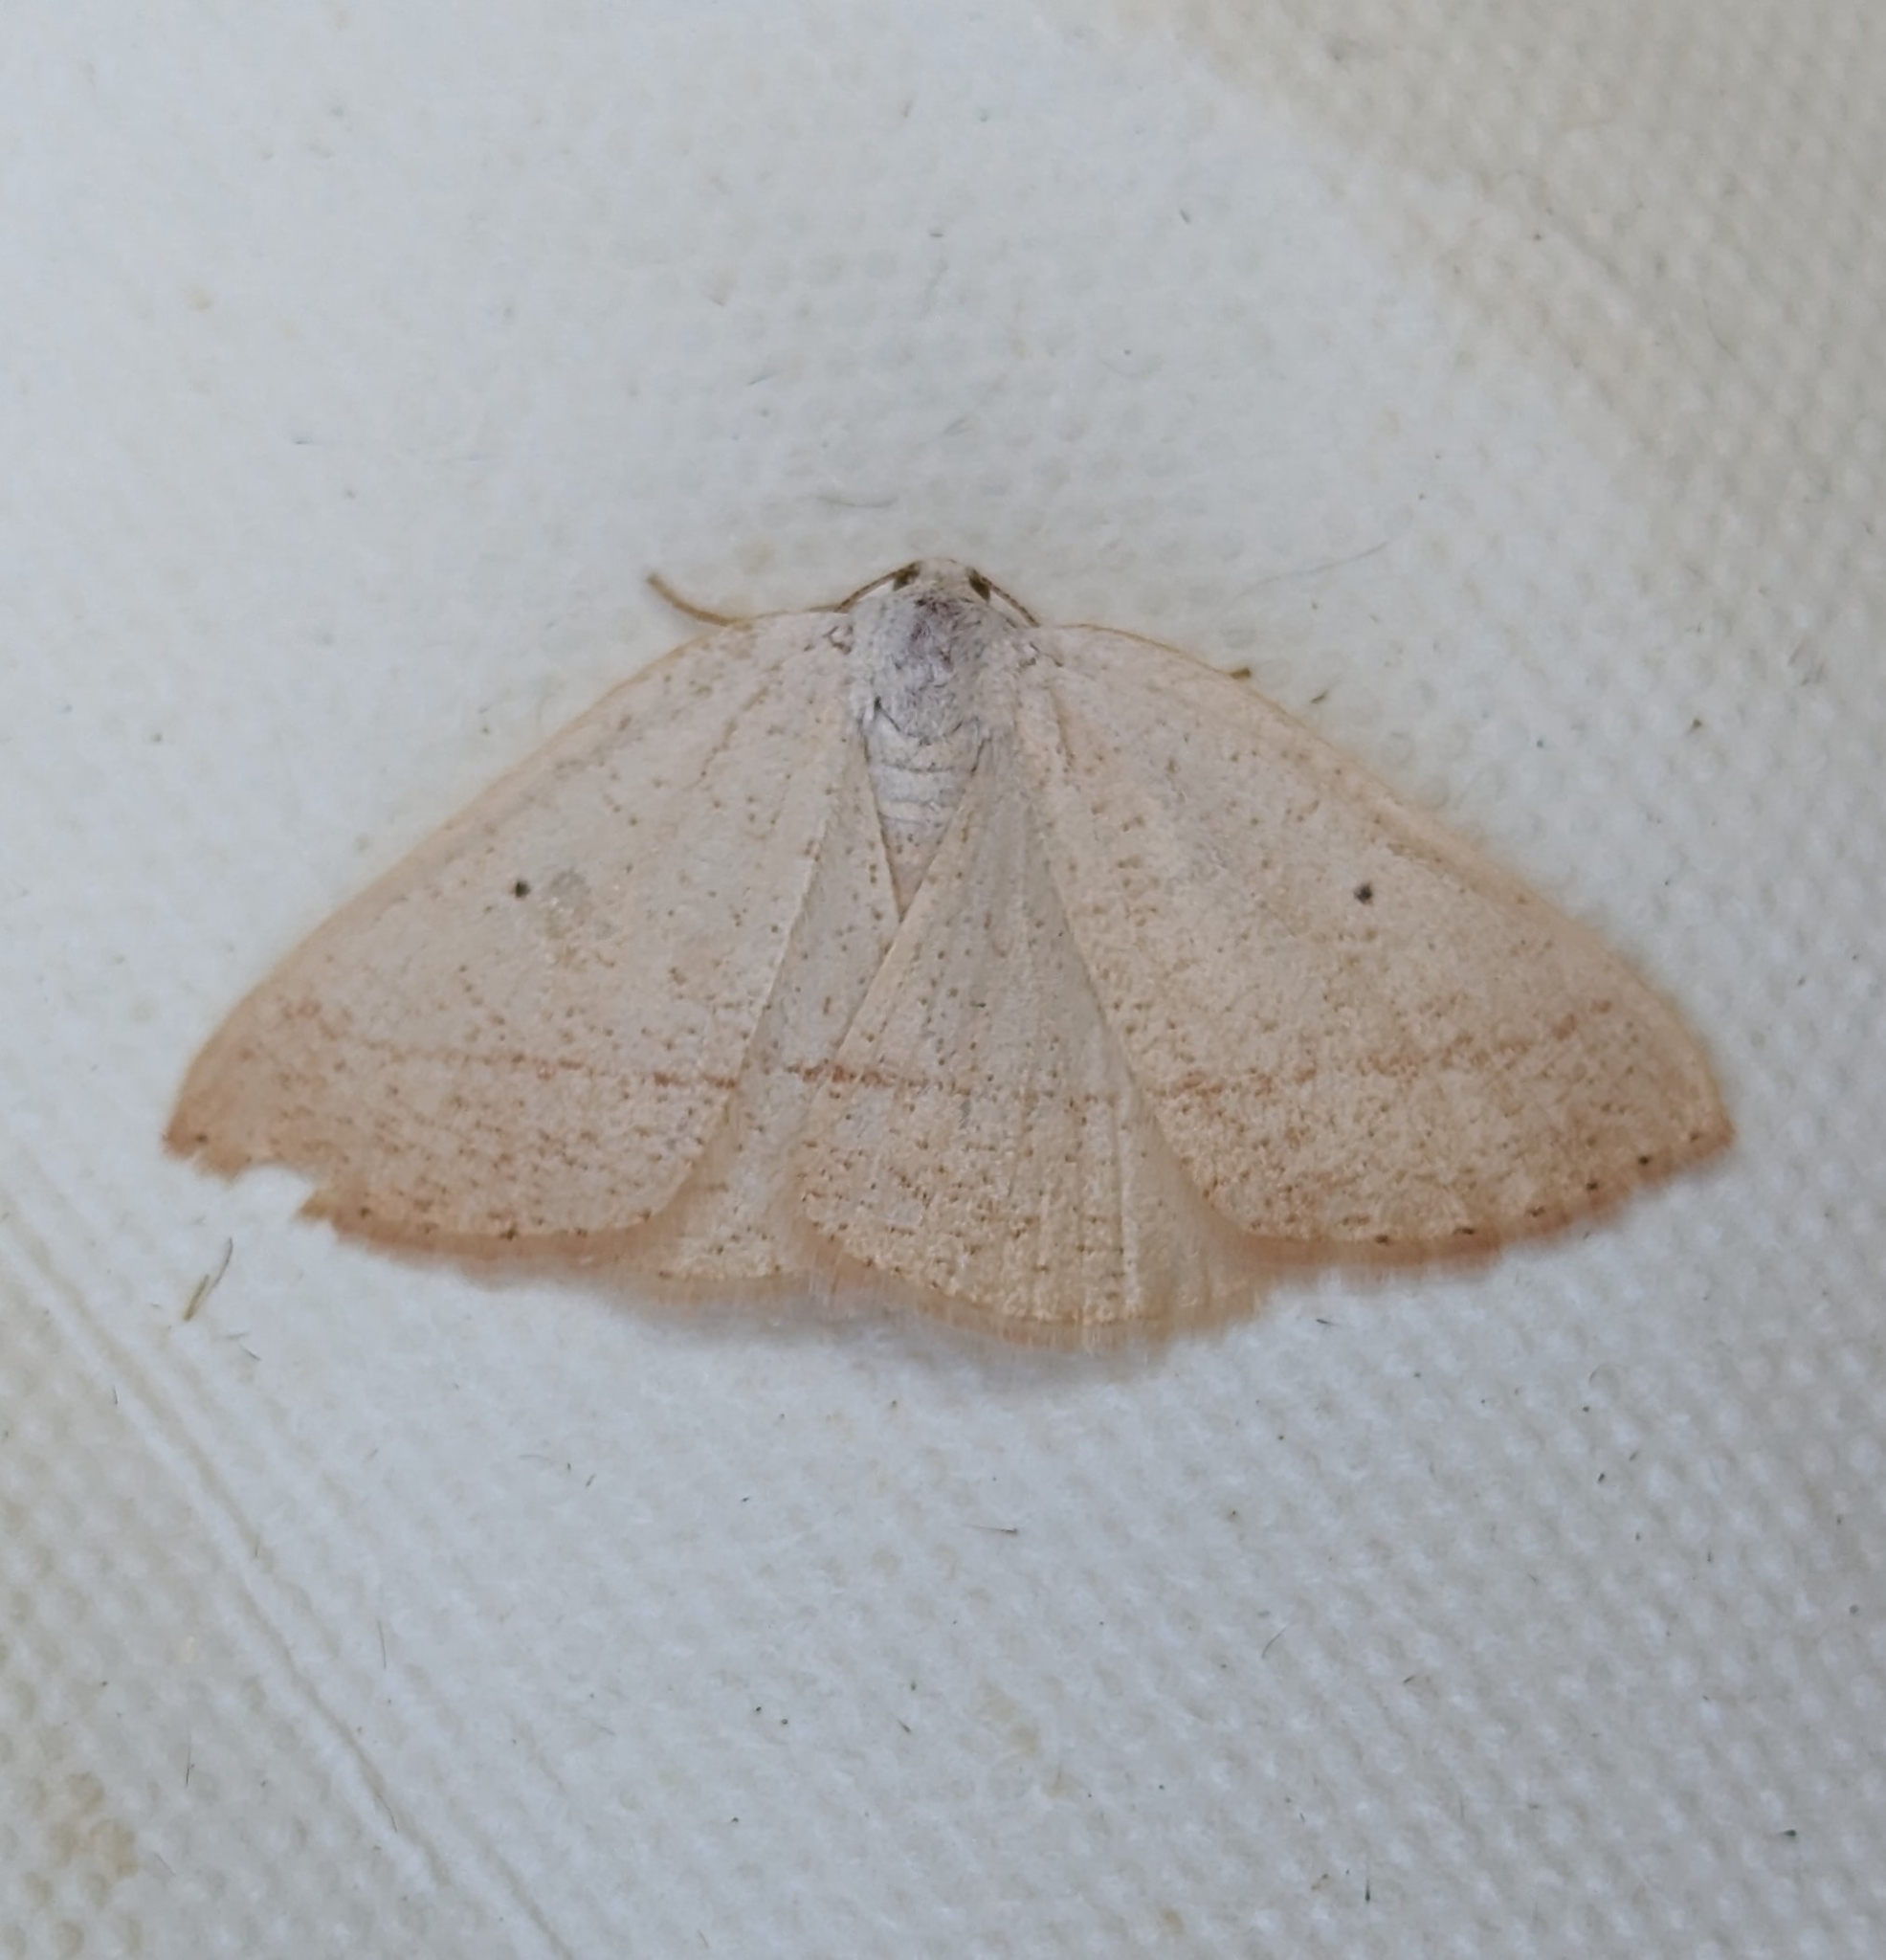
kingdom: Animalia
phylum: Arthropoda
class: Insecta
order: Lepidoptera
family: Geometridae
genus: Eudrepanulatrix
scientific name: Eudrepanulatrix rectifascia
